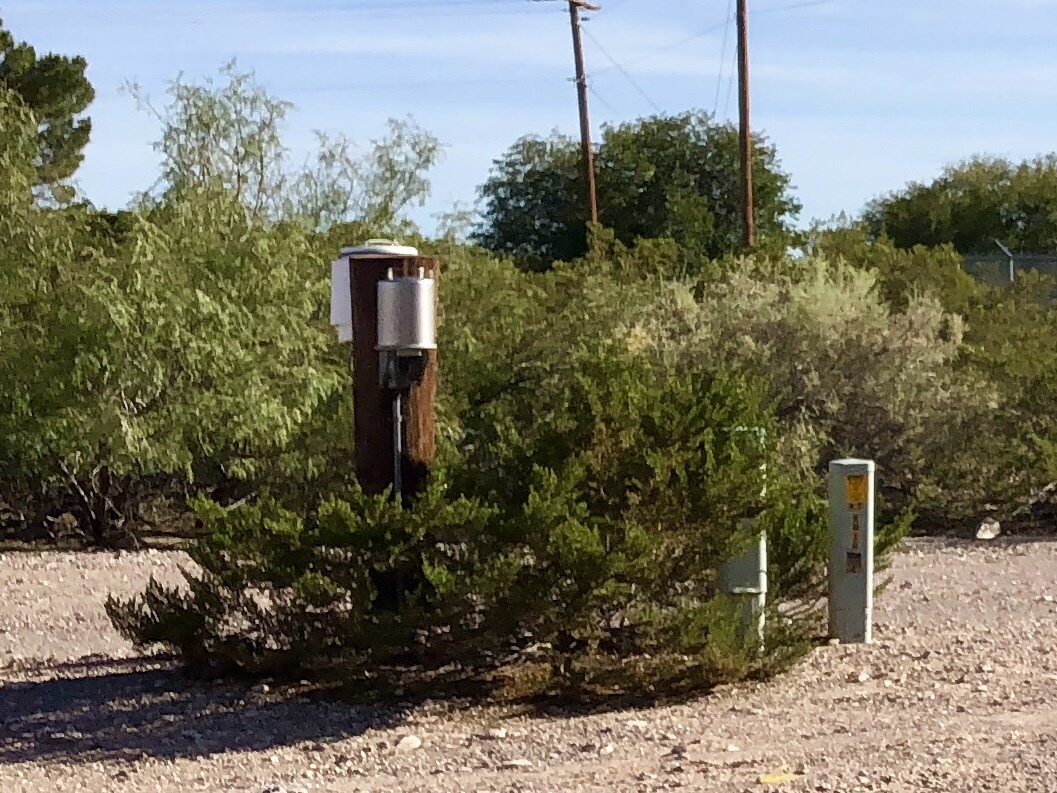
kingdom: Plantae
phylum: Tracheophyta
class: Magnoliopsida
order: Zygophyllales
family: Zygophyllaceae
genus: Larrea
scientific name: Larrea tridentata
